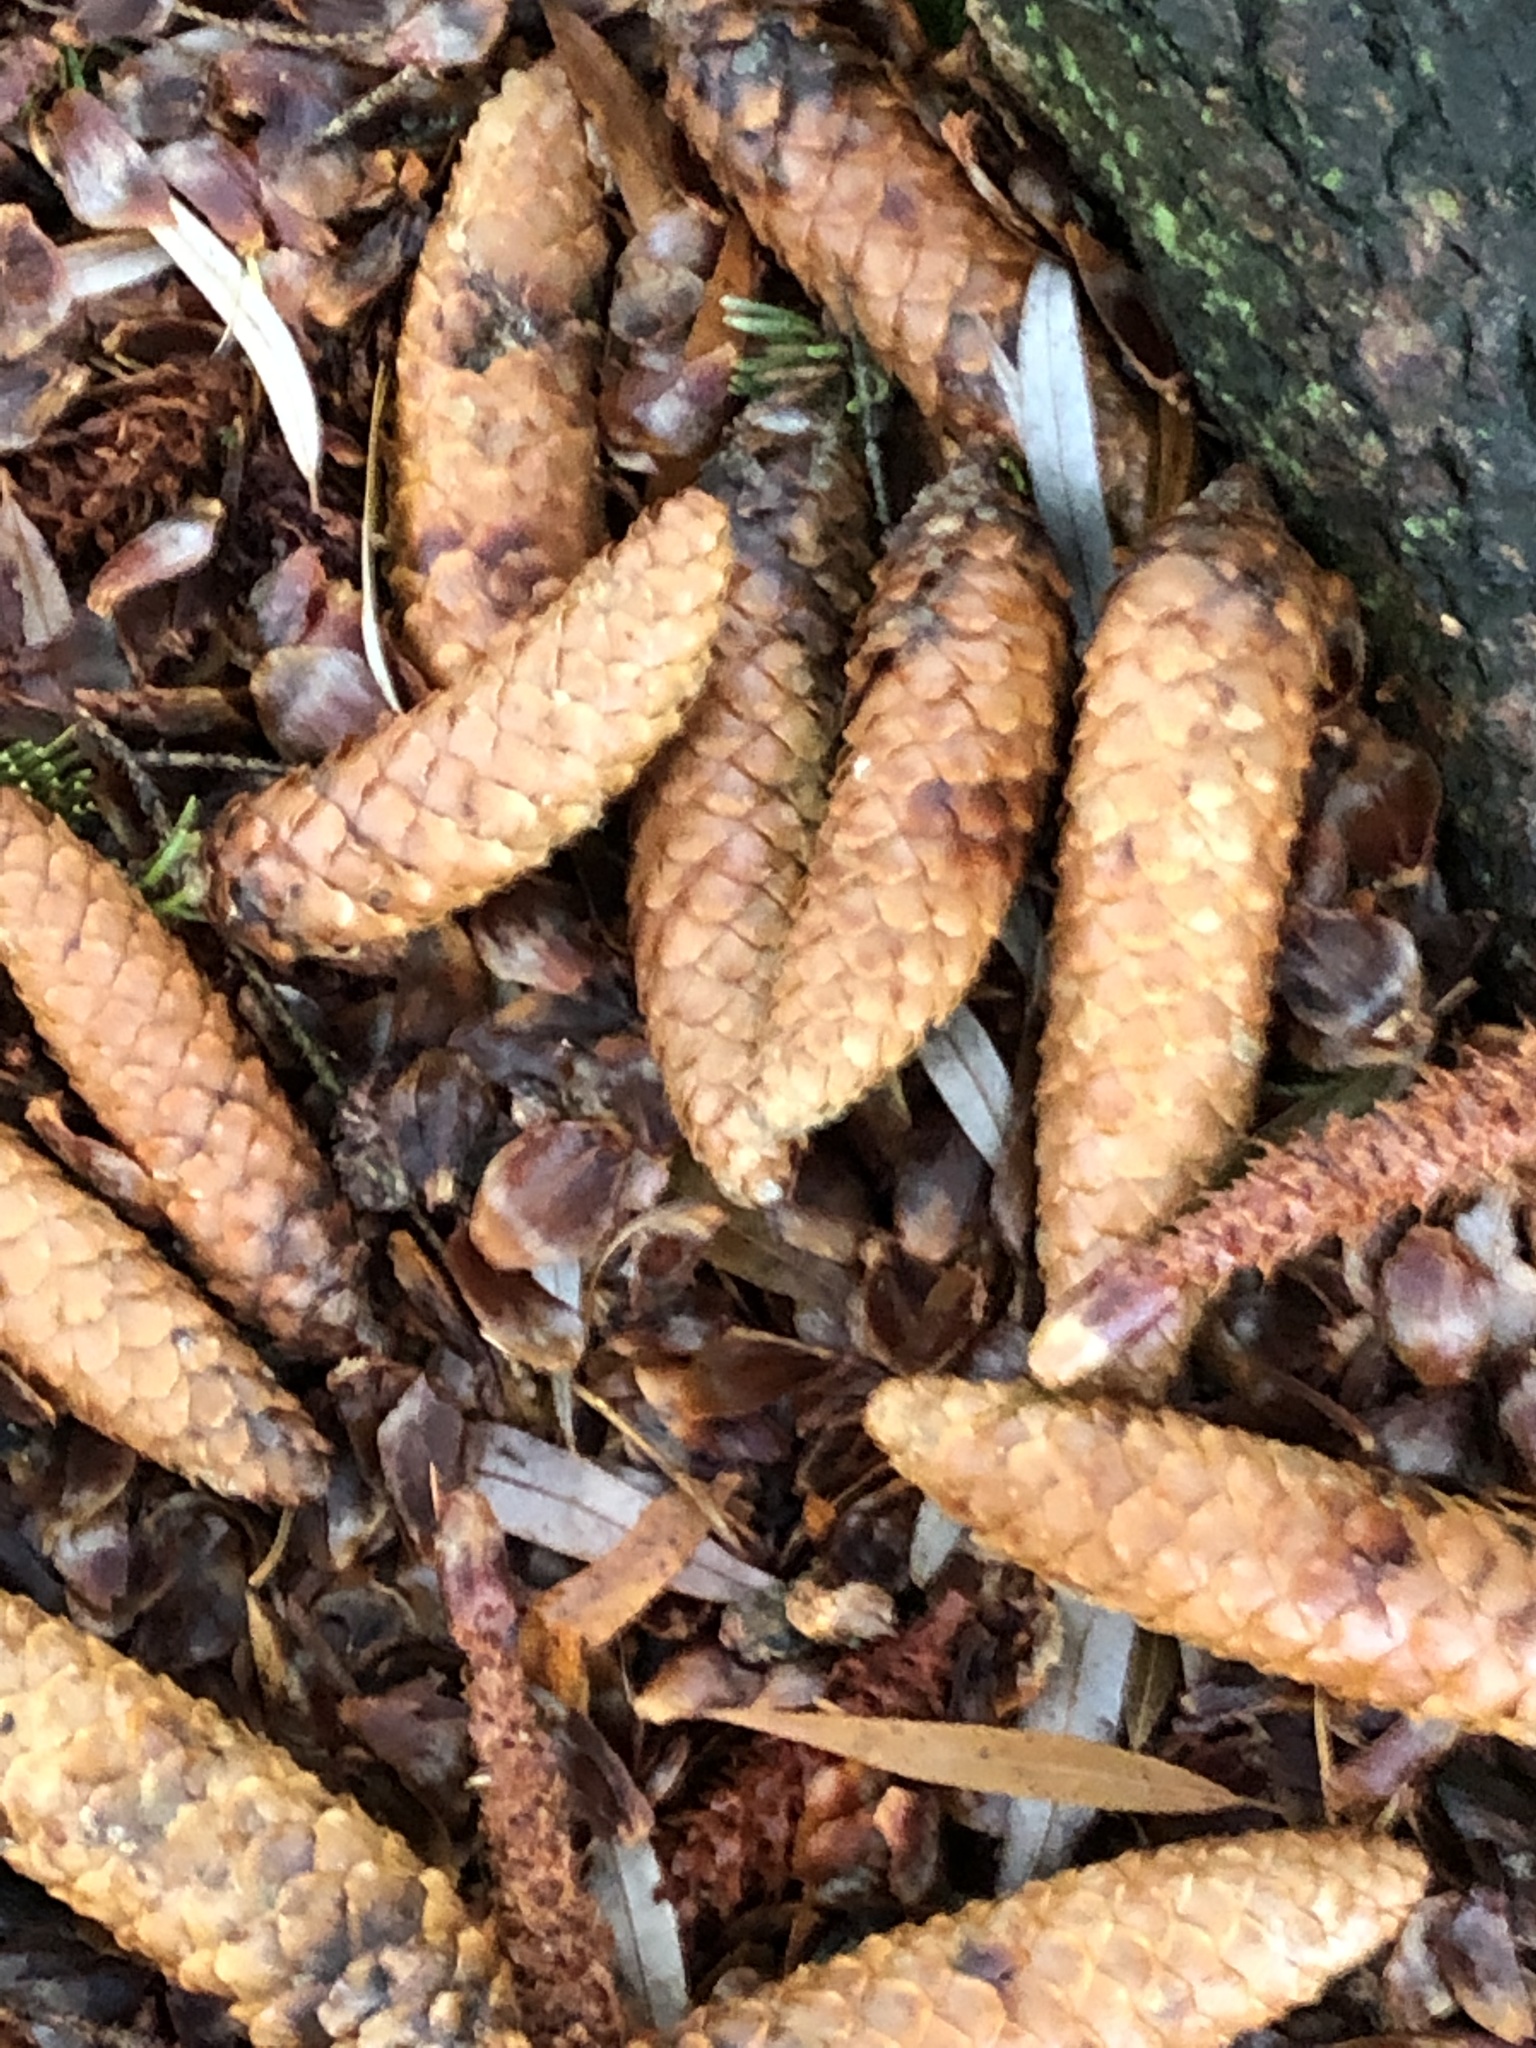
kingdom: Plantae
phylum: Tracheophyta
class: Pinopsida
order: Pinales
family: Pinaceae
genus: Picea
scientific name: Picea abies
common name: Norway spruce
